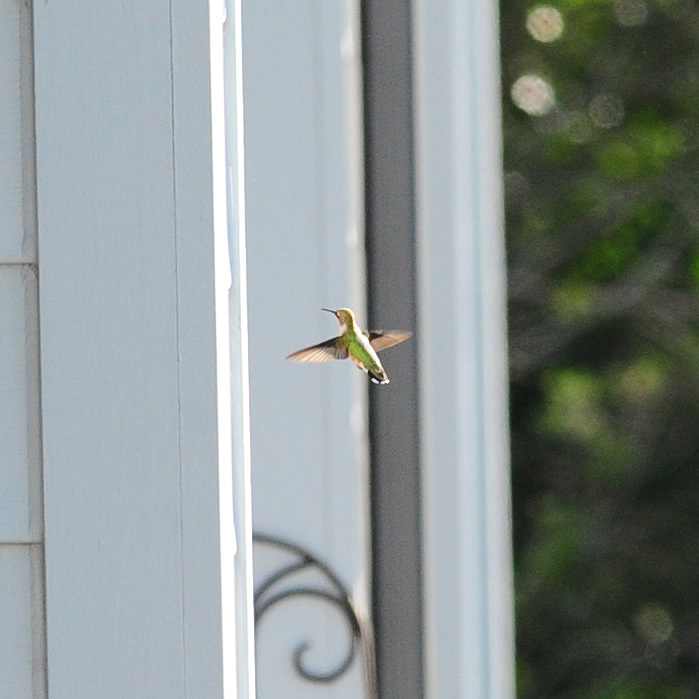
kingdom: Animalia
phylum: Chordata
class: Aves
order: Apodiformes
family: Trochilidae
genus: Archilochus
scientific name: Archilochus colubris
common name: Ruby-throated hummingbird
